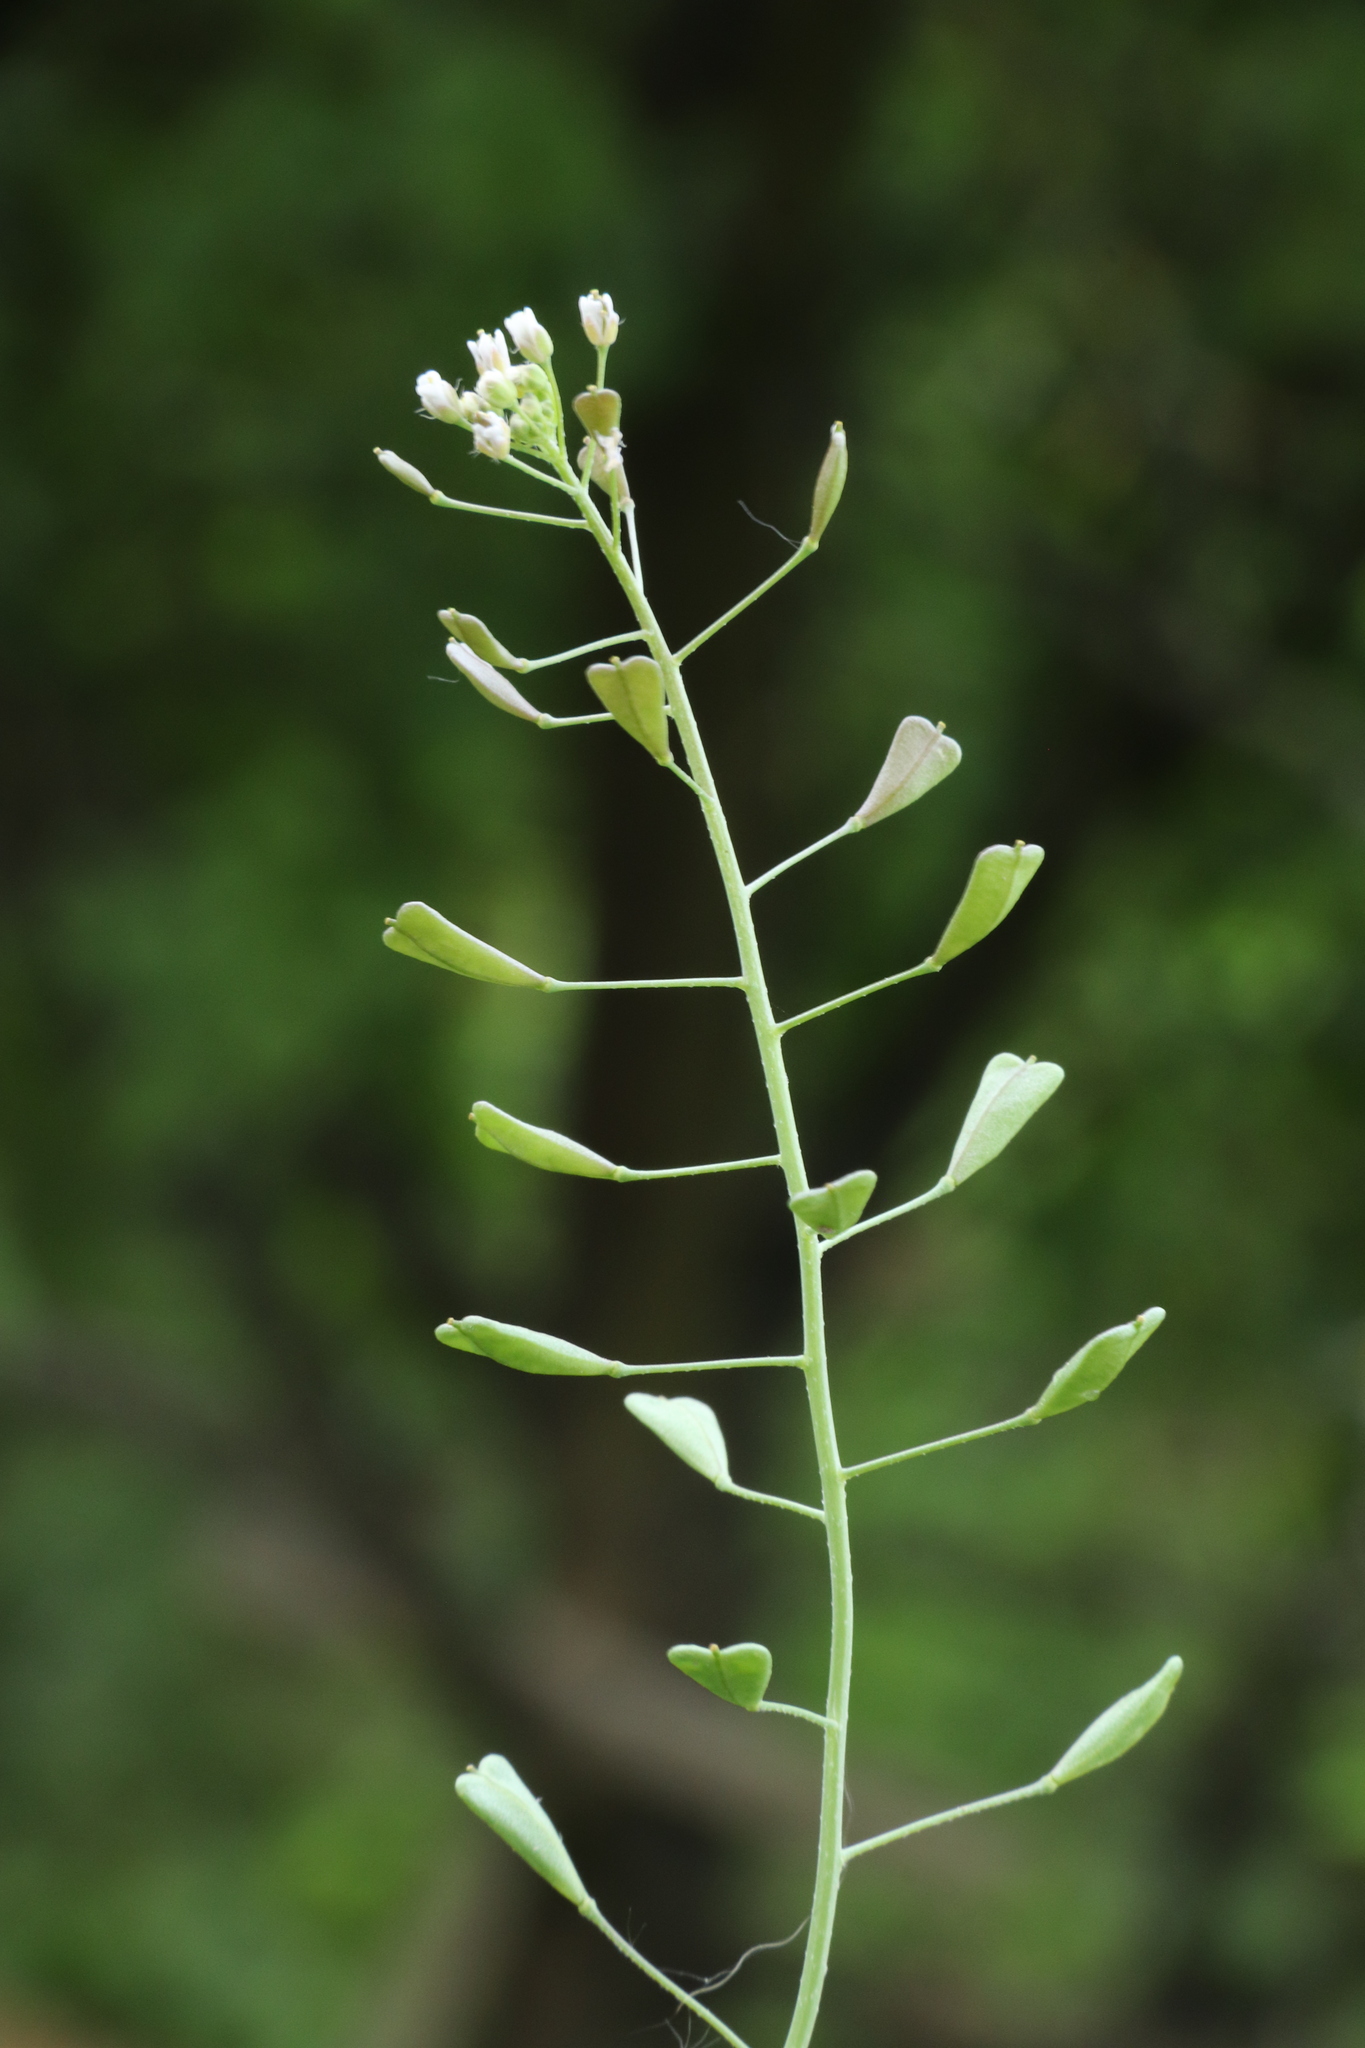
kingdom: Plantae
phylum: Tracheophyta
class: Magnoliopsida
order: Brassicales
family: Brassicaceae
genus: Capsella
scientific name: Capsella bursa-pastoris
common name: Shepherd's purse
